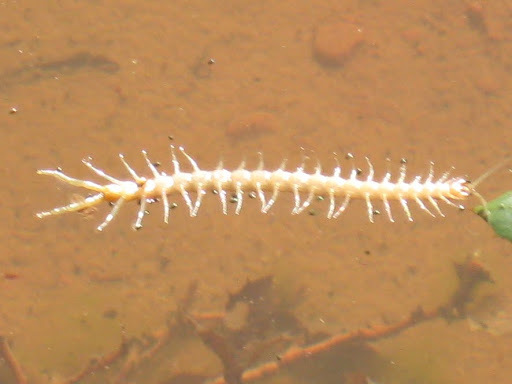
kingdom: Animalia
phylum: Arthropoda
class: Chilopoda
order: Scolopendromorpha
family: Scolopendridae
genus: Scolopendra
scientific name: Scolopendra polymorpha
